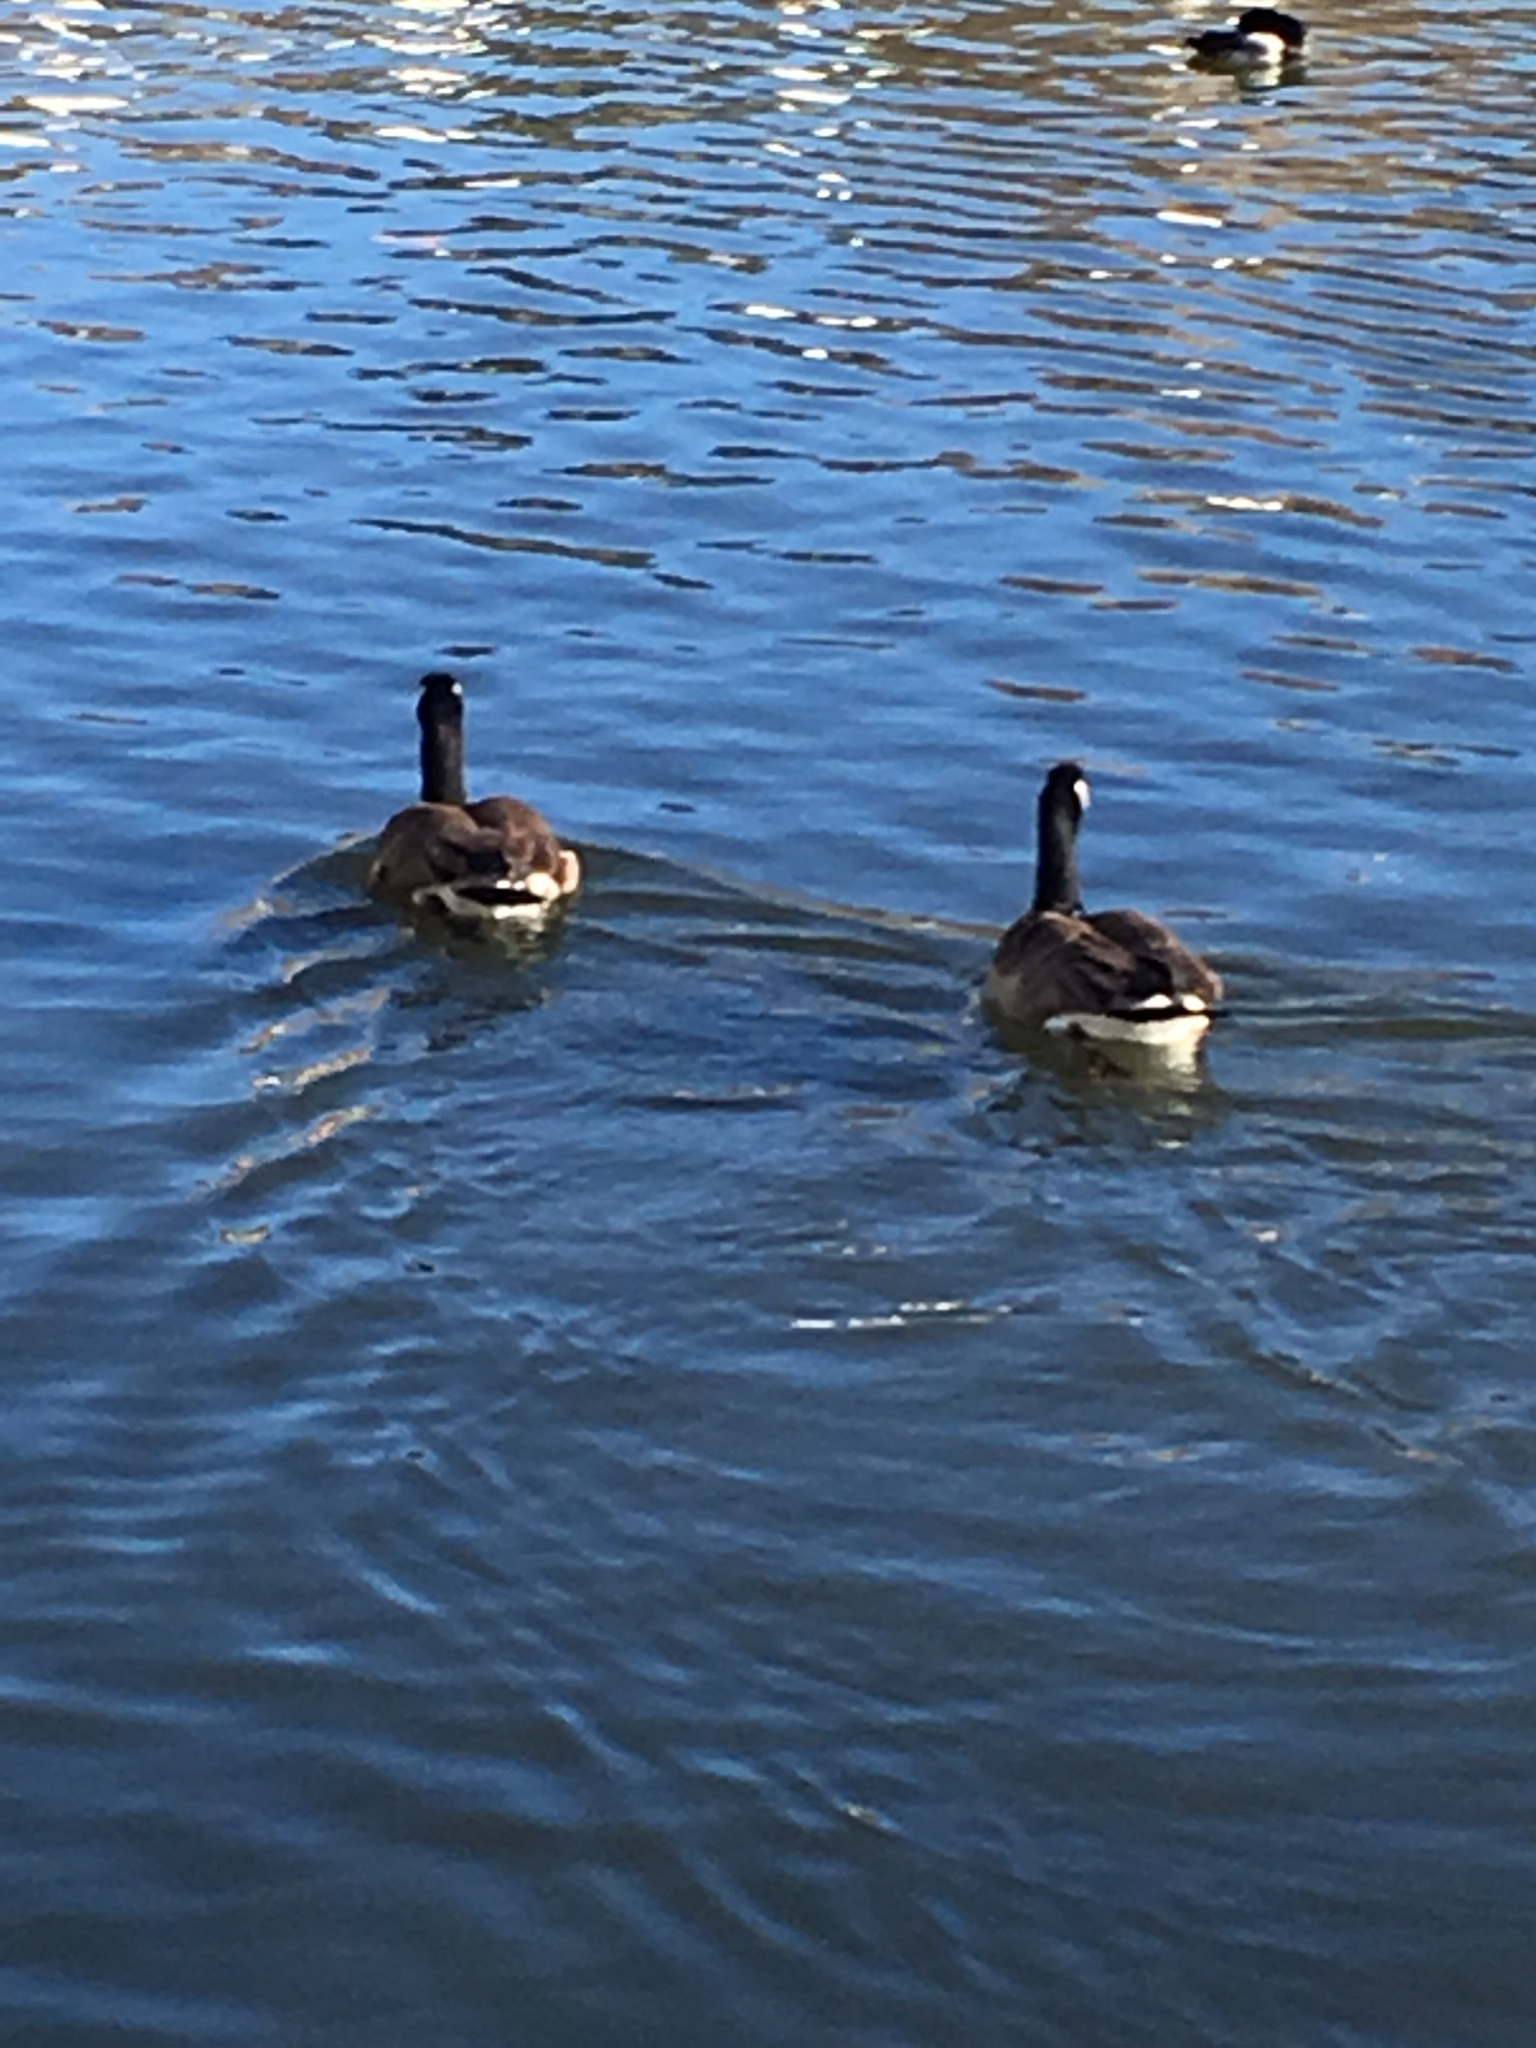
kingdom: Animalia
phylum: Chordata
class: Aves
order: Anseriformes
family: Anatidae
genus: Branta
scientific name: Branta canadensis
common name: Canada goose
